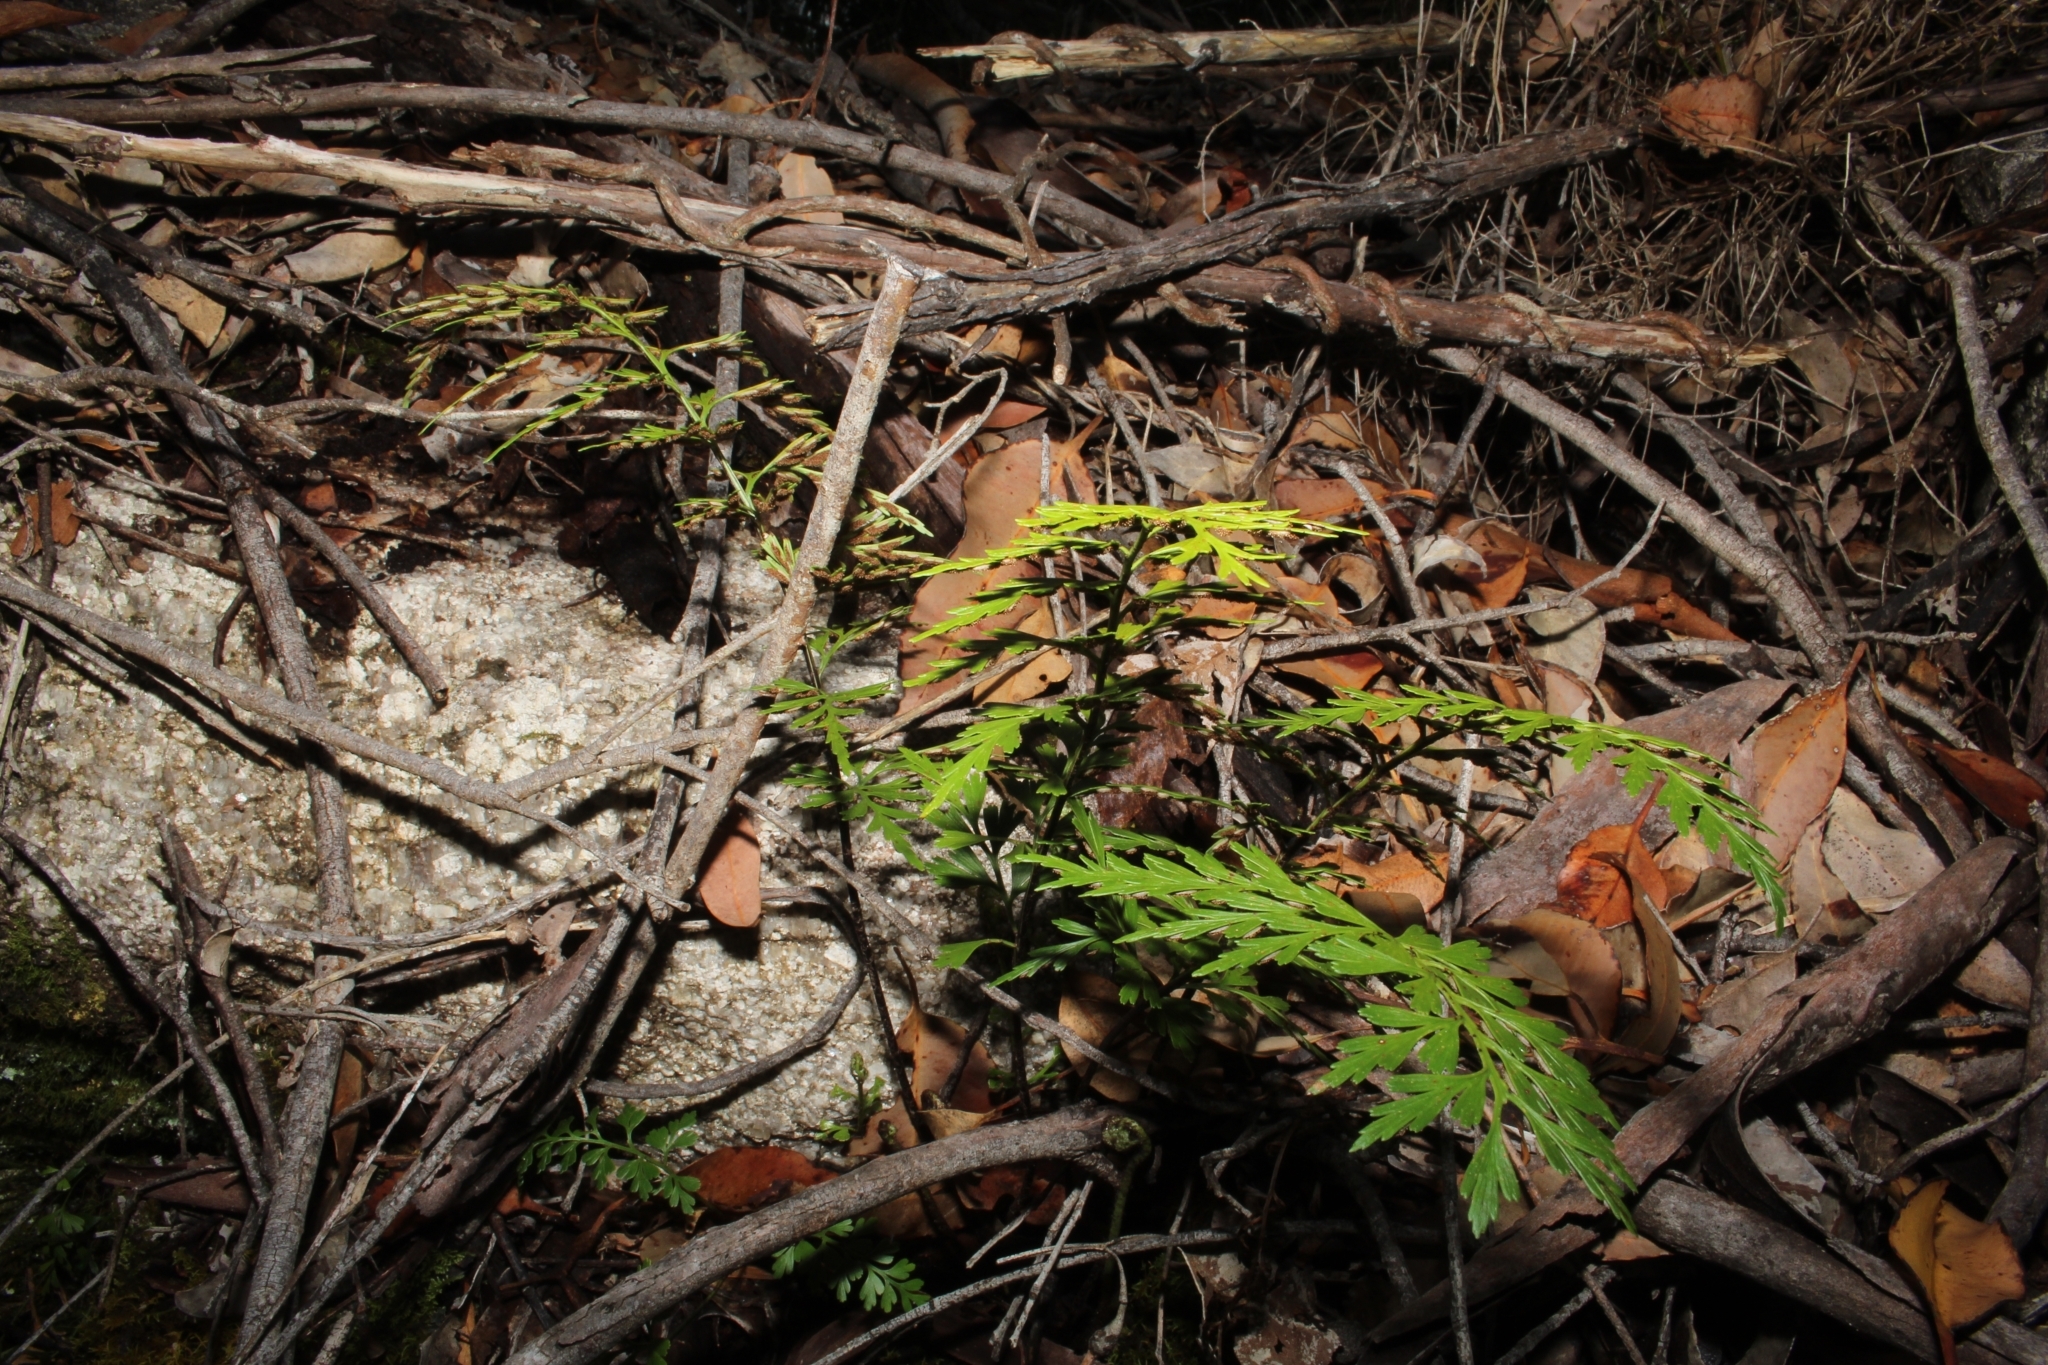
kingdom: Plantae
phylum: Tracheophyta
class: Polypodiopsida
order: Polypodiales
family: Aspleniaceae
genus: Asplenium
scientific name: Asplenium aethiopicum
